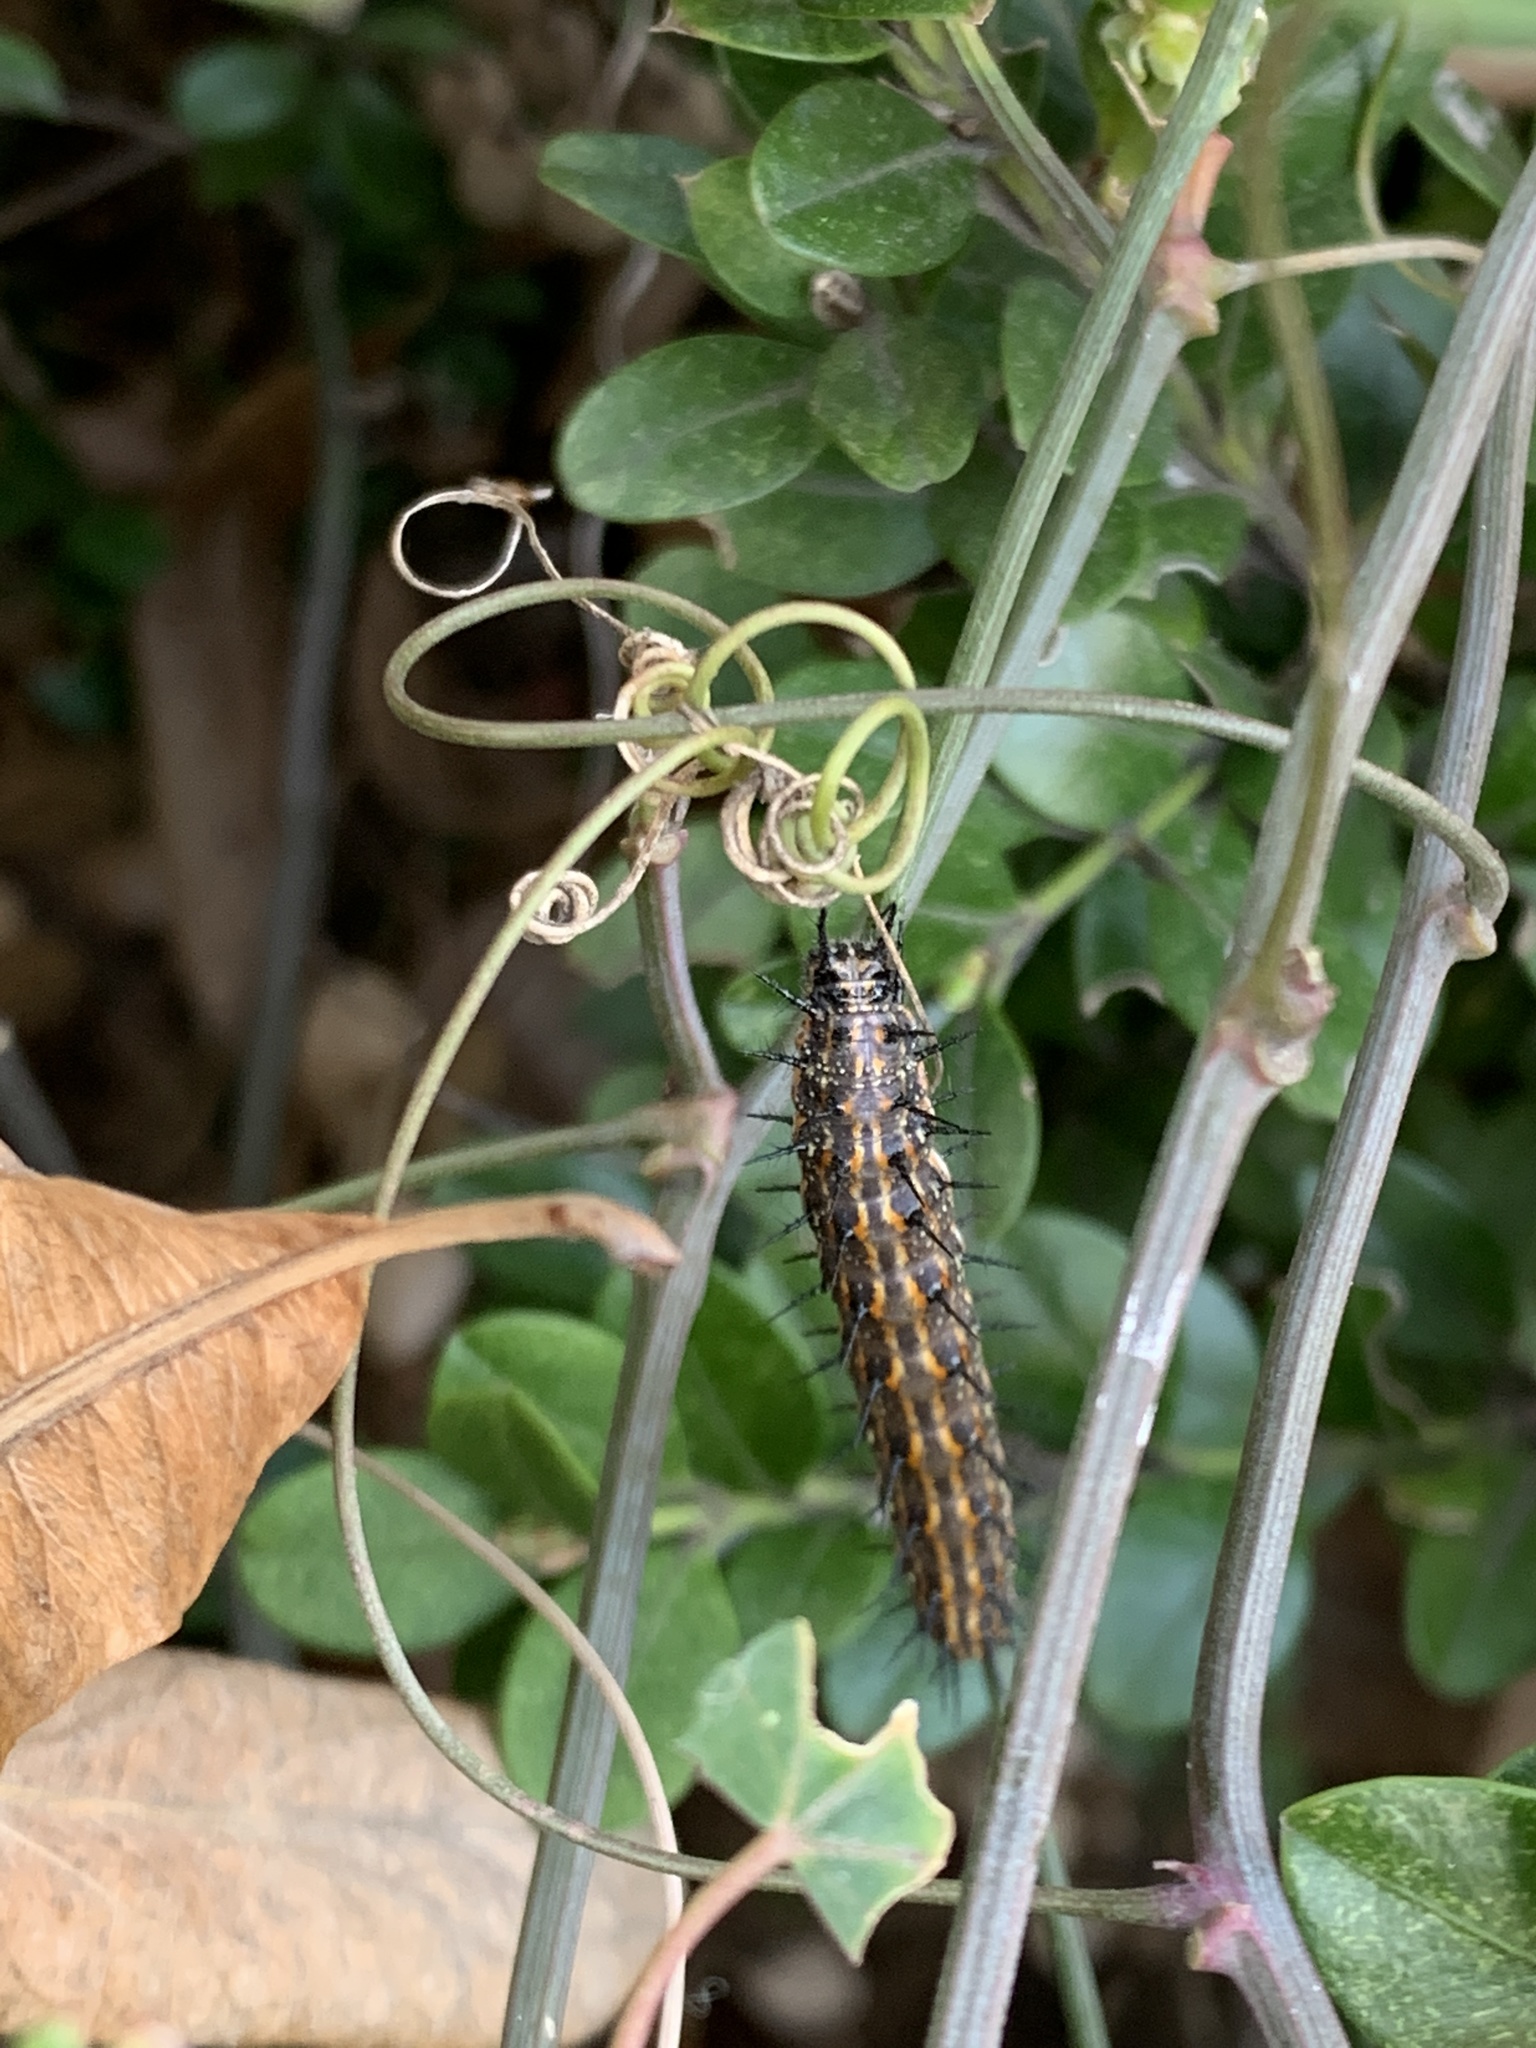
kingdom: Animalia
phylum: Arthropoda
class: Insecta
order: Lepidoptera
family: Nymphalidae
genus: Dione
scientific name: Dione vanillae
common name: Gulf fritillary
